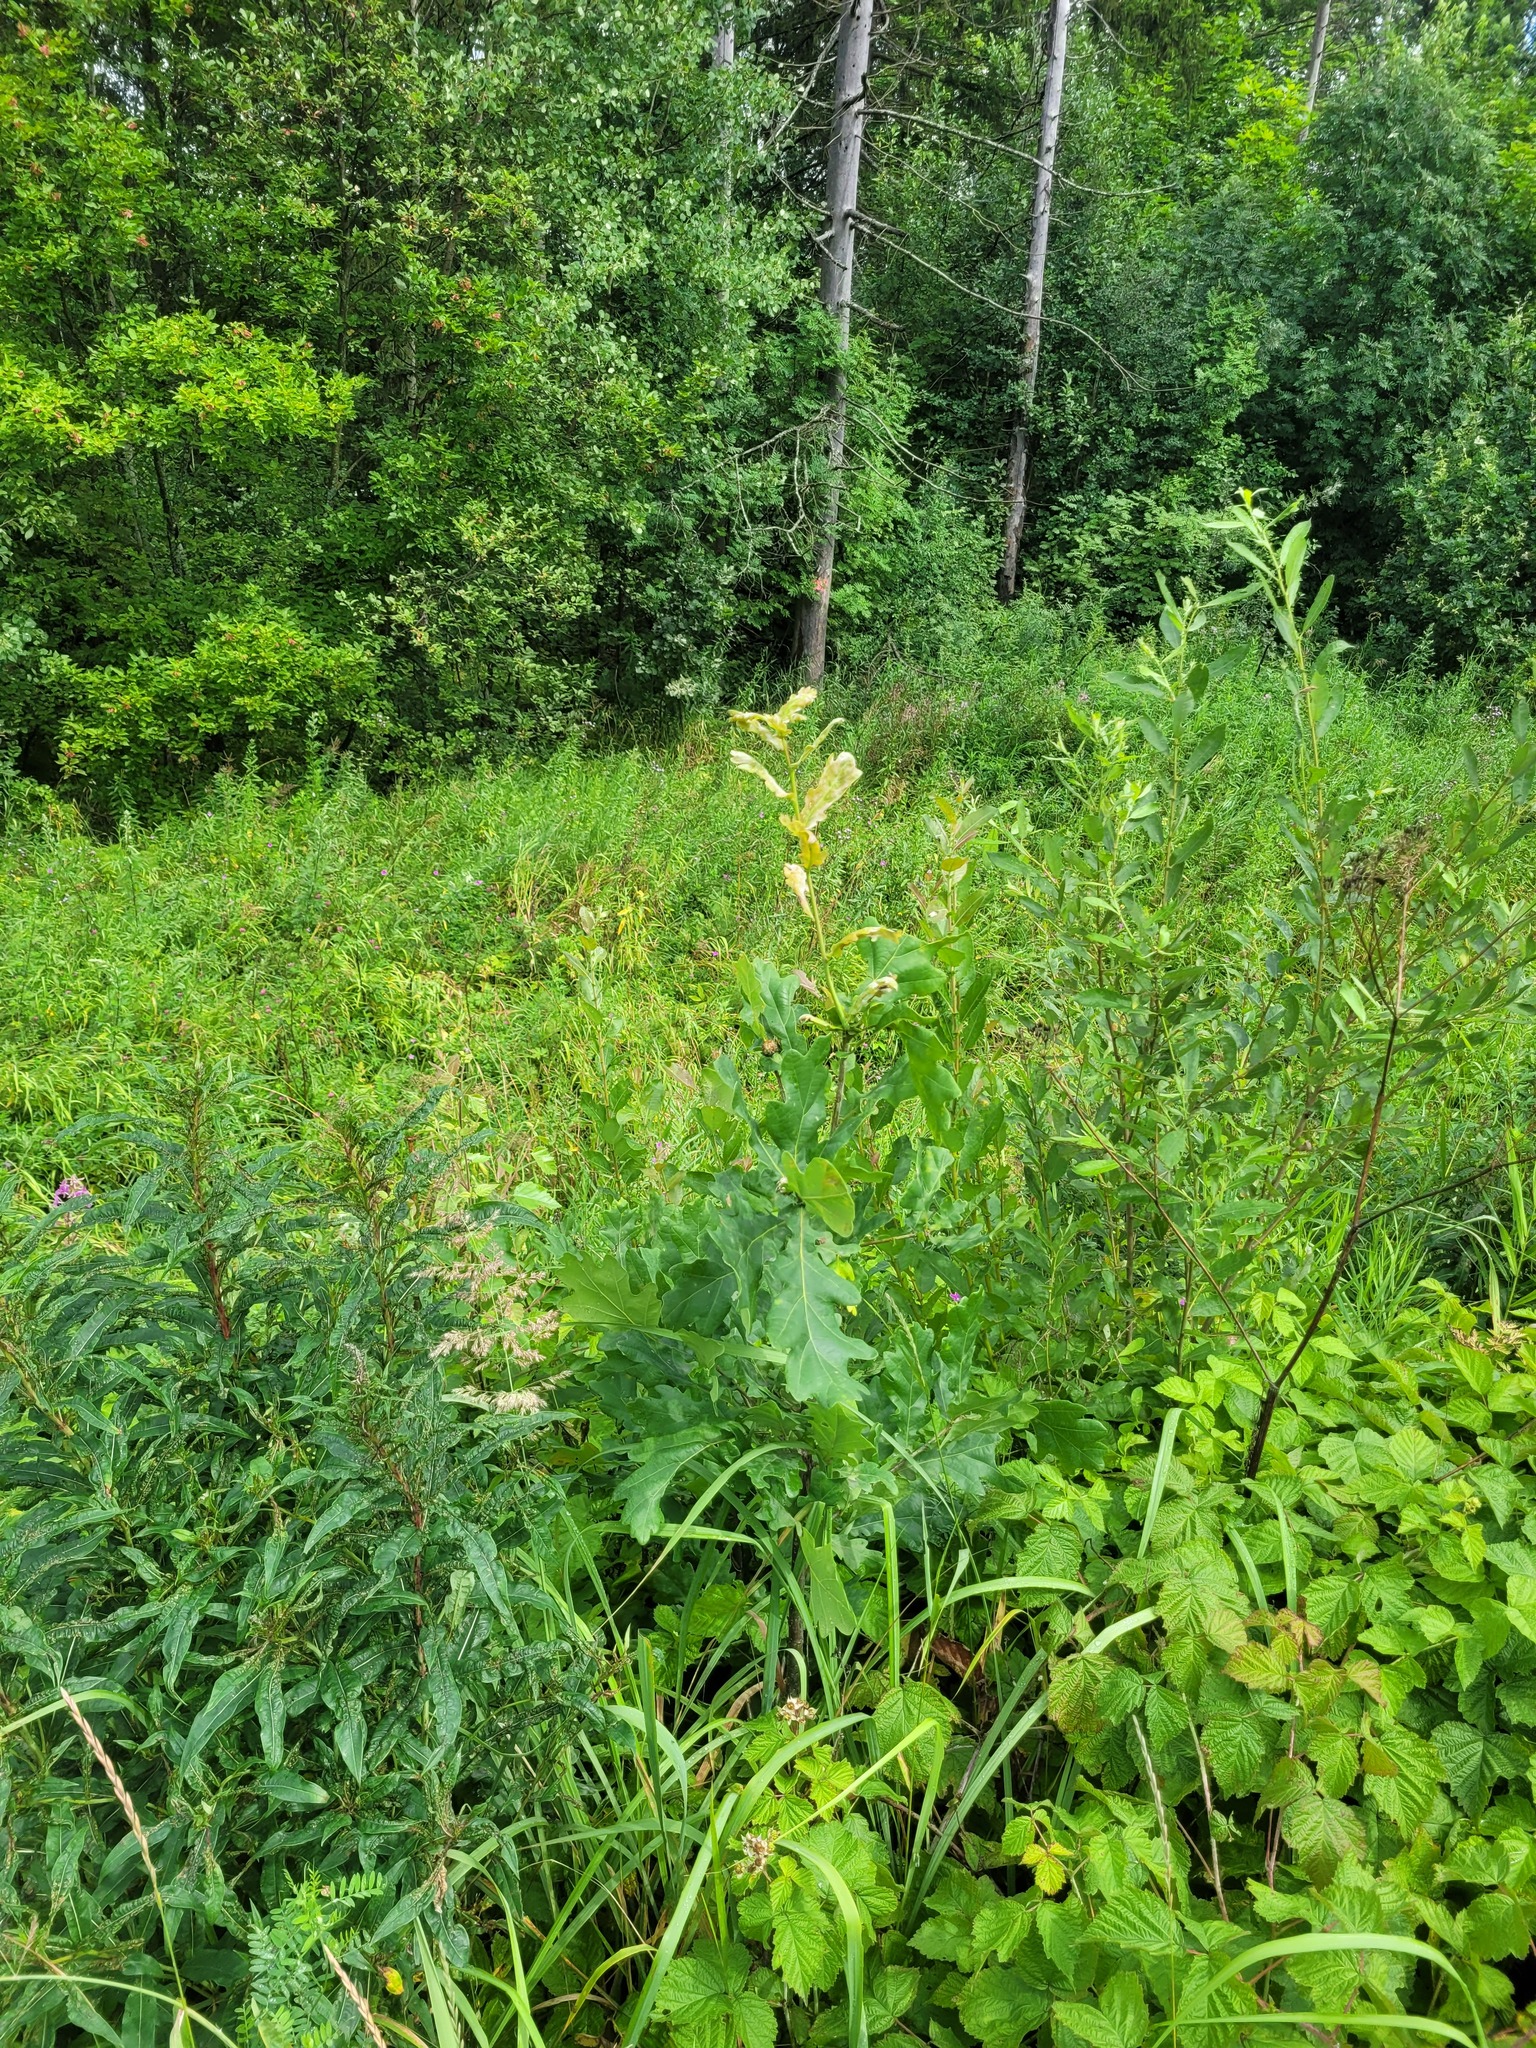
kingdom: Plantae
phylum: Tracheophyta
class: Magnoliopsida
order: Fagales
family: Fagaceae
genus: Quercus
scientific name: Quercus robur
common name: Pedunculate oak
